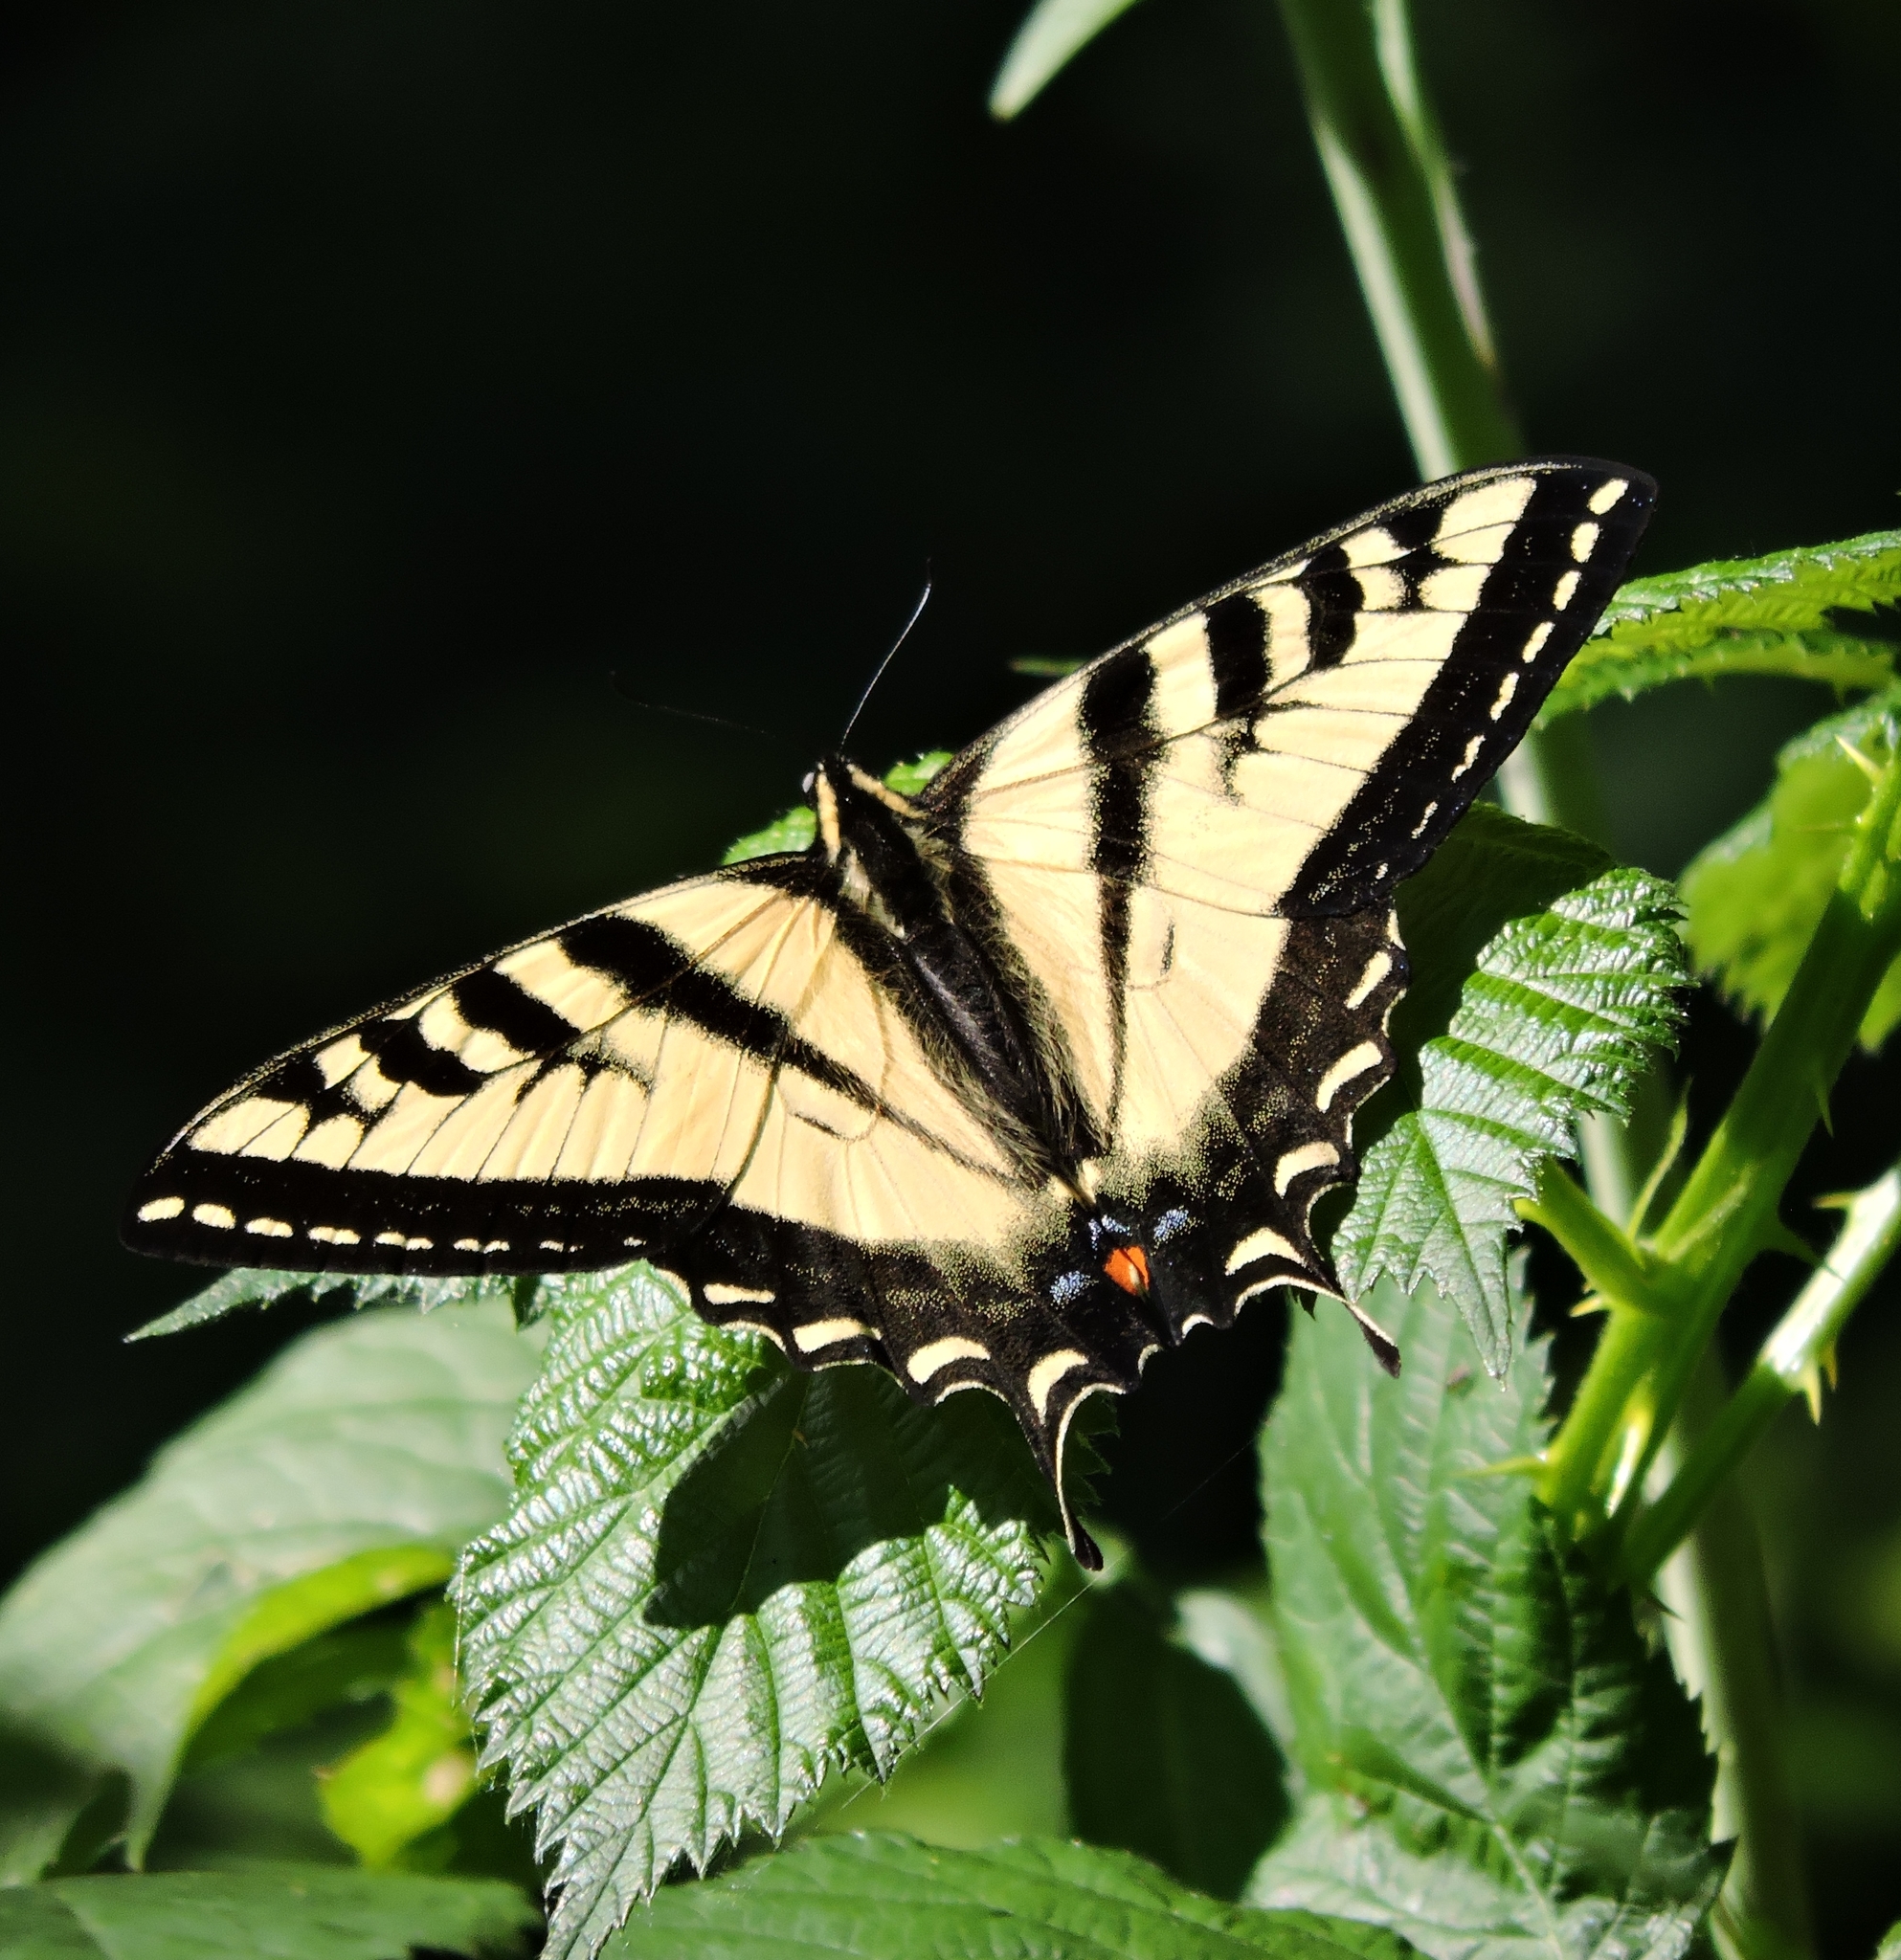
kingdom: Animalia
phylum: Arthropoda
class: Insecta
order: Lepidoptera
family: Papilionidae
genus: Papilio
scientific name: Papilio rutulus
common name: Western tiger swallowtail
